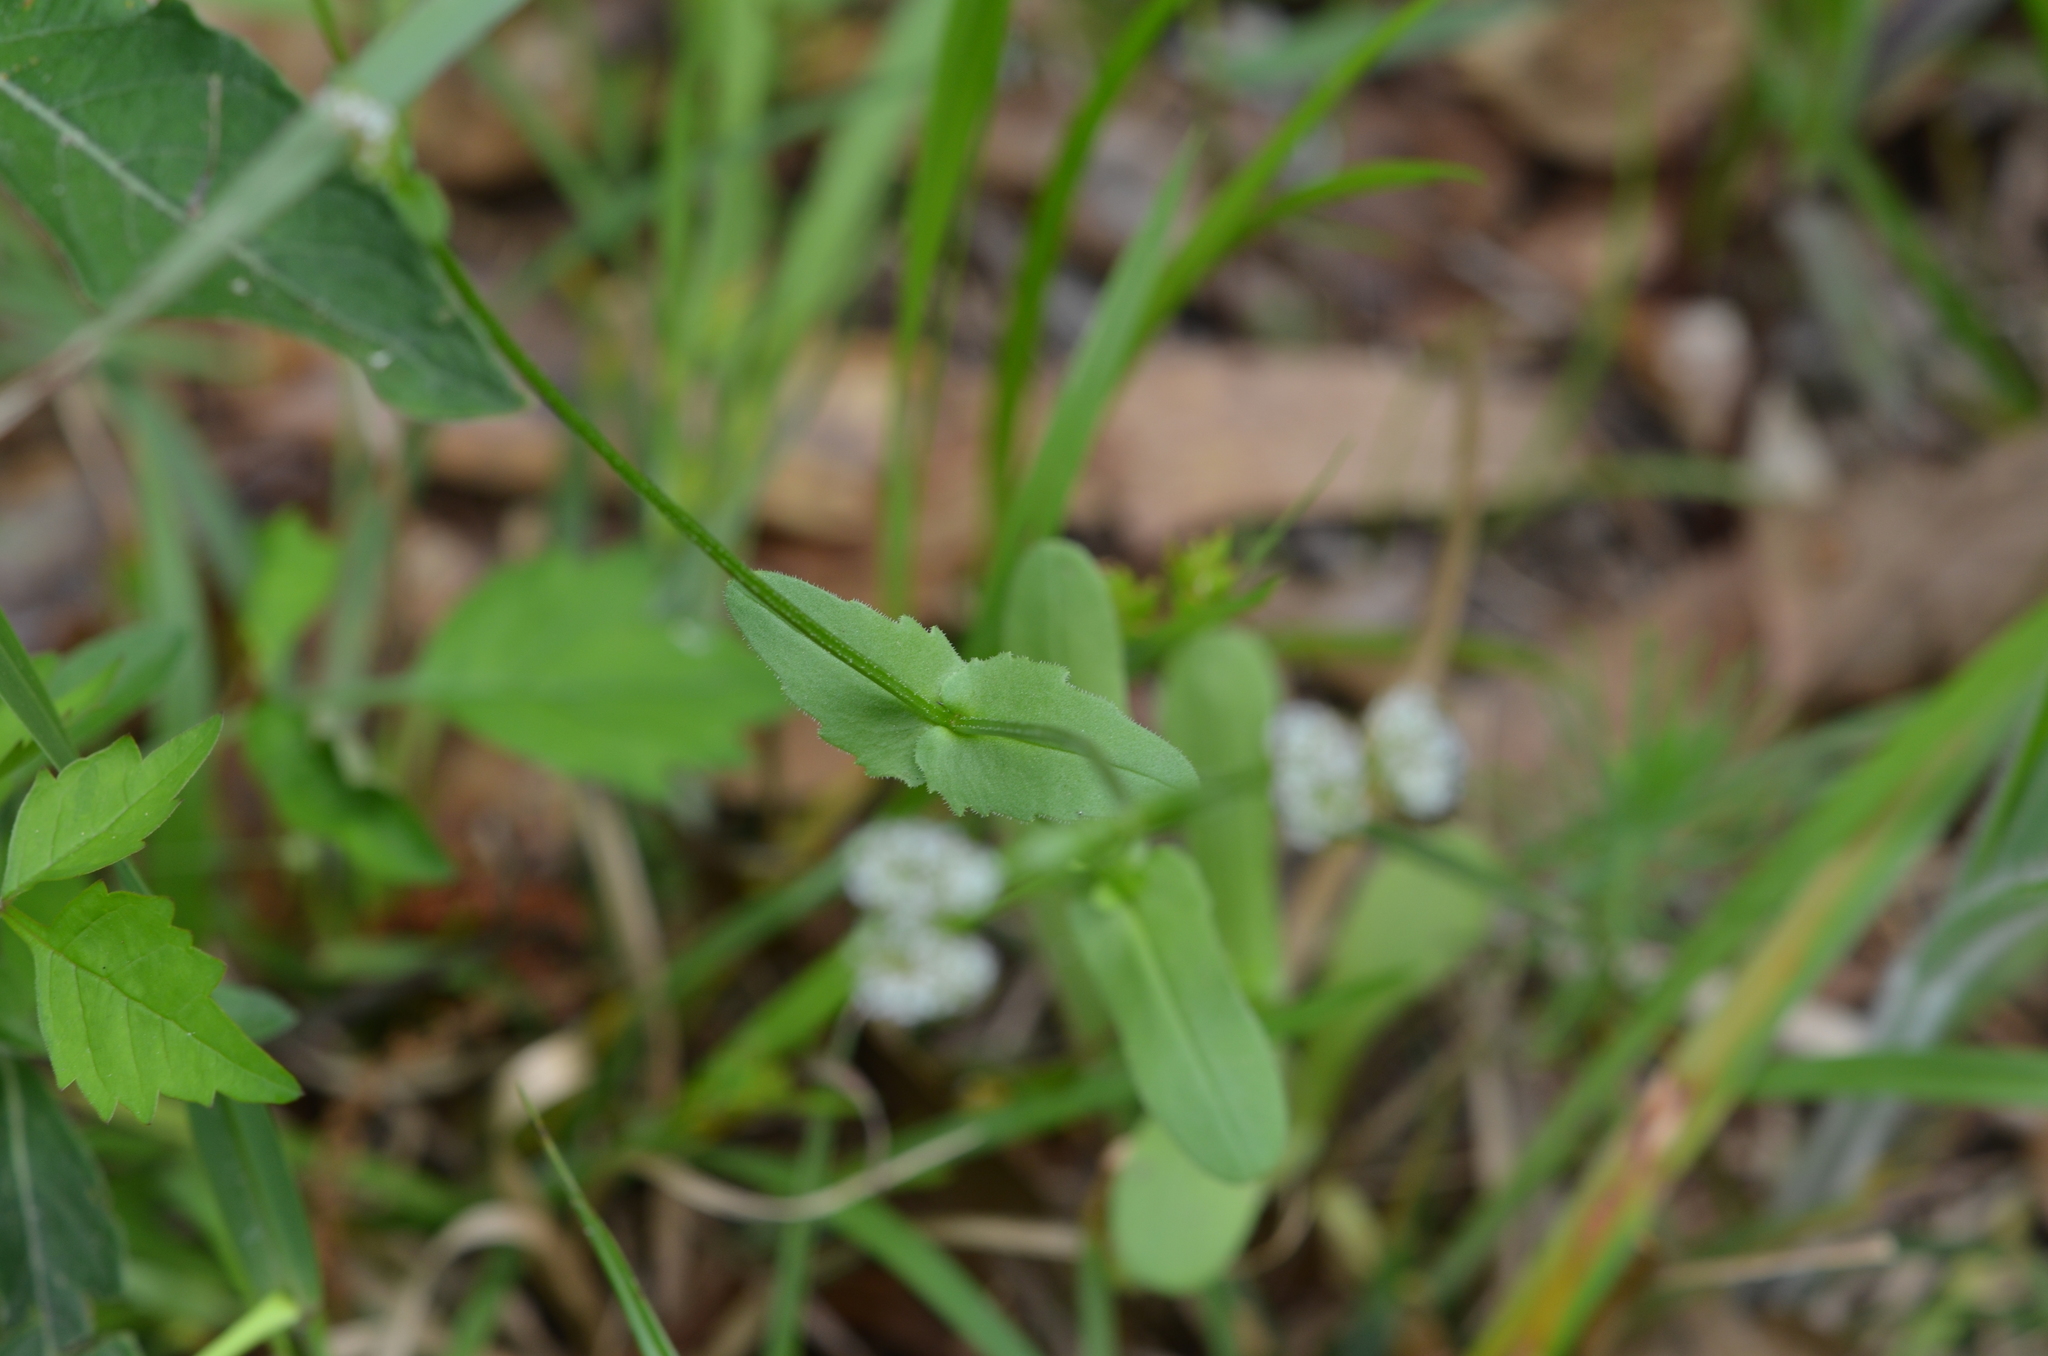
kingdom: Plantae
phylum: Tracheophyta
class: Magnoliopsida
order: Dipsacales
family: Caprifoliaceae
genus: Valerianella
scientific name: Valerianella radiata
